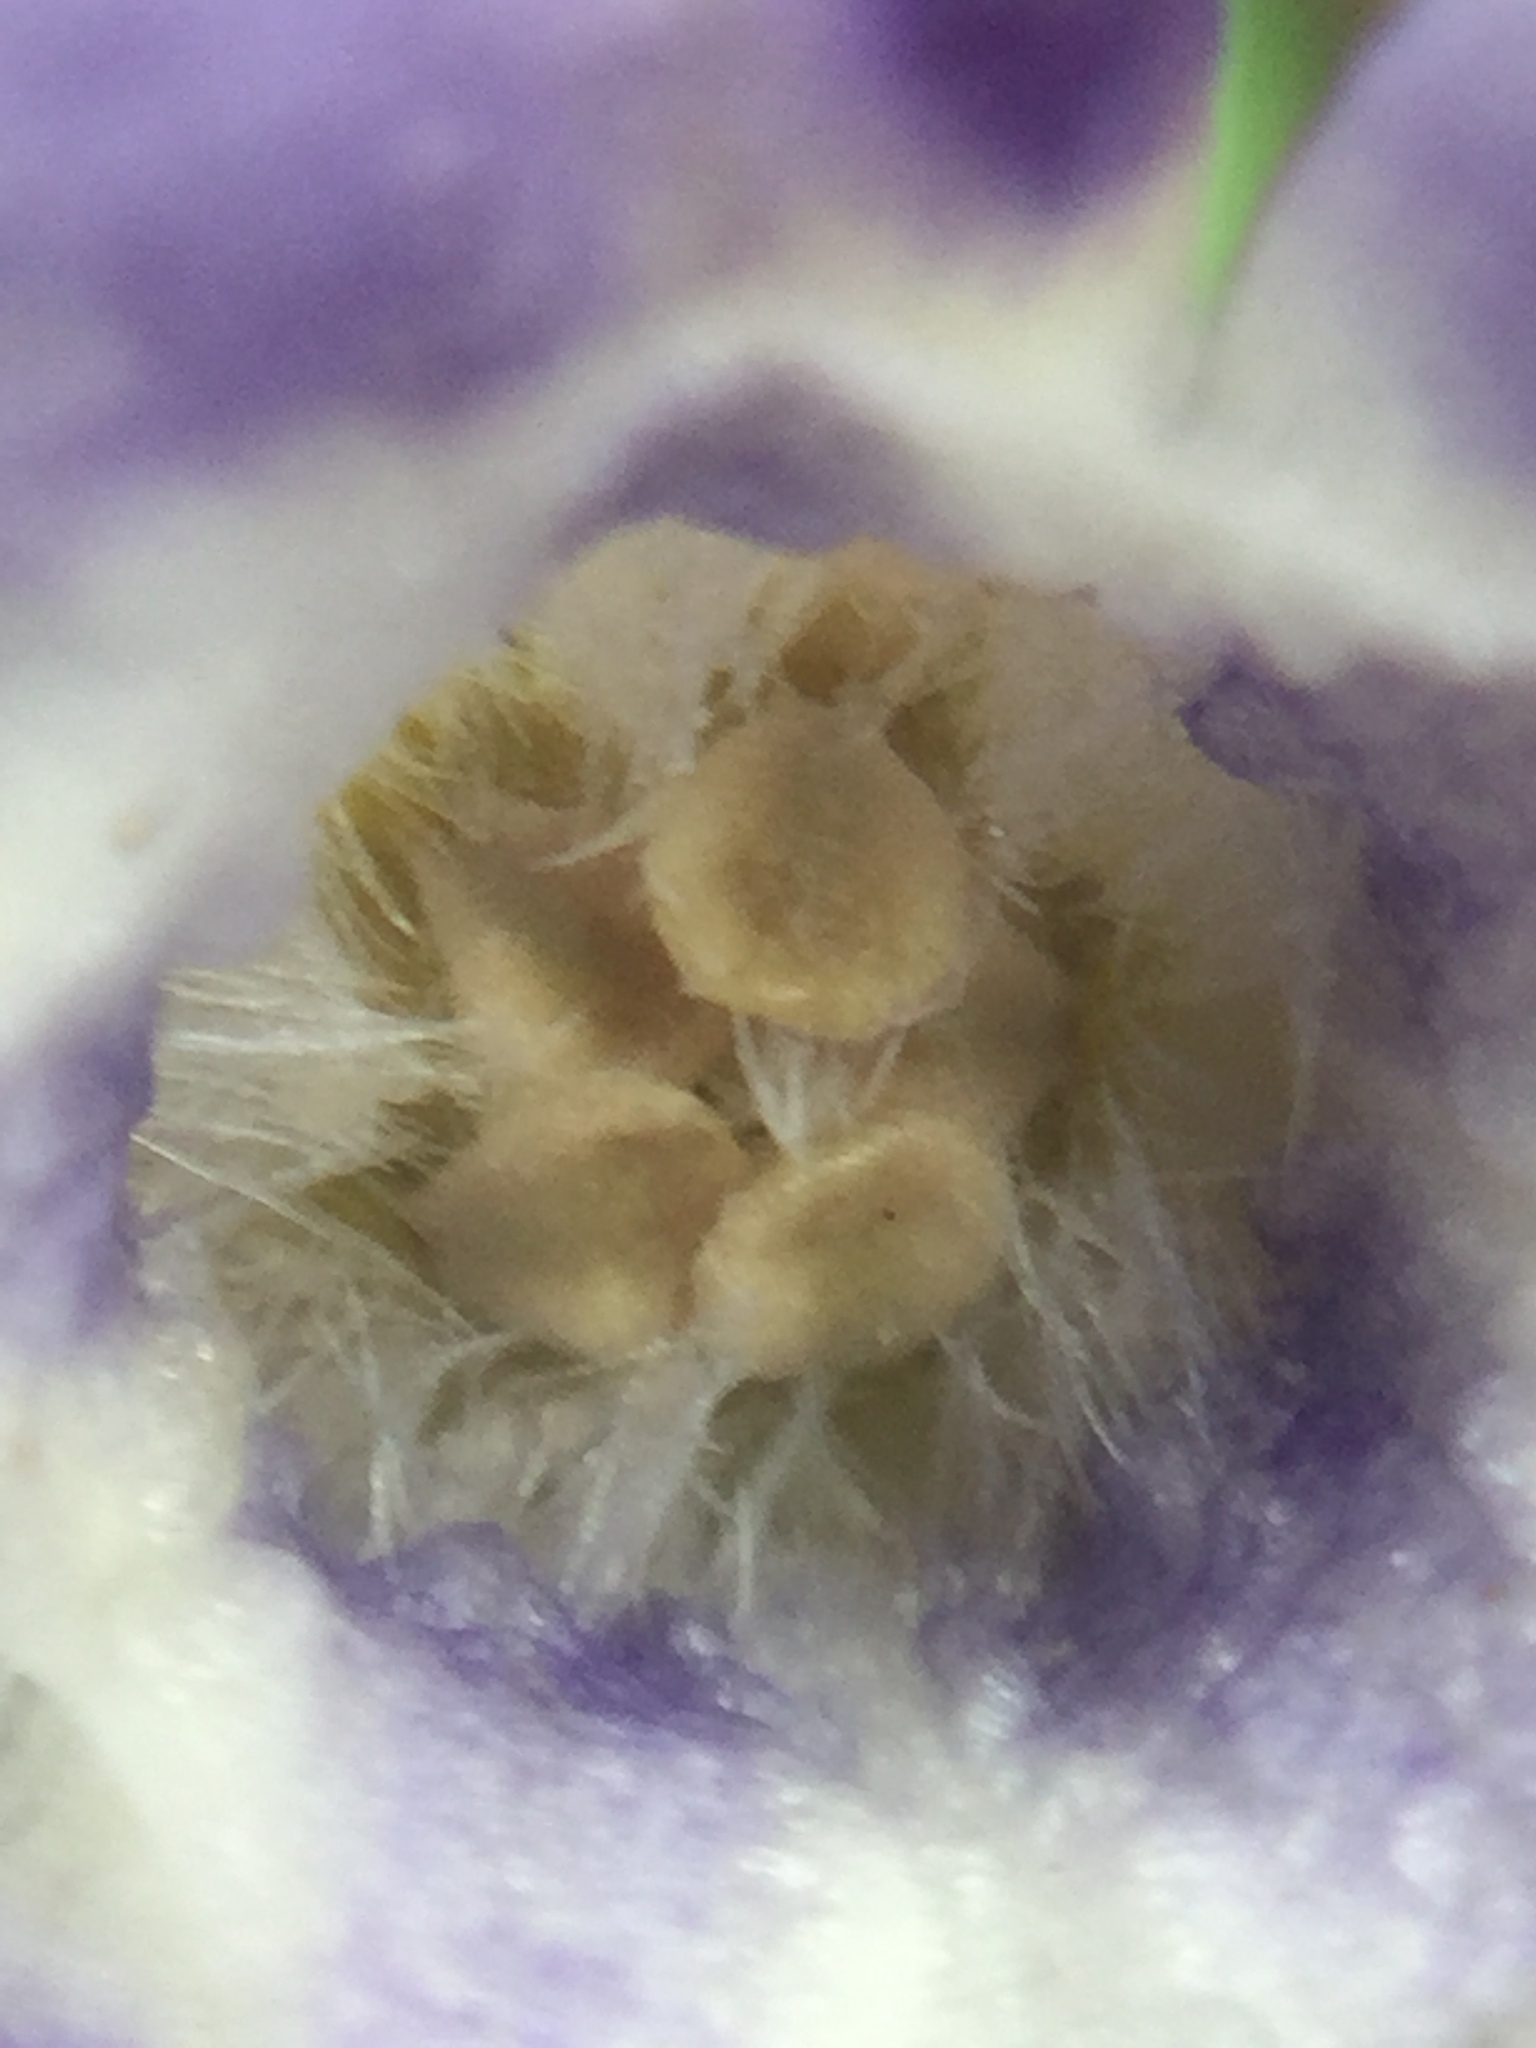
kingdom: Plantae
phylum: Tracheophyta
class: Magnoliopsida
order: Gentianales
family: Apocynaceae
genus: Vinca
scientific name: Vinca minor
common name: Lesser periwinkle
